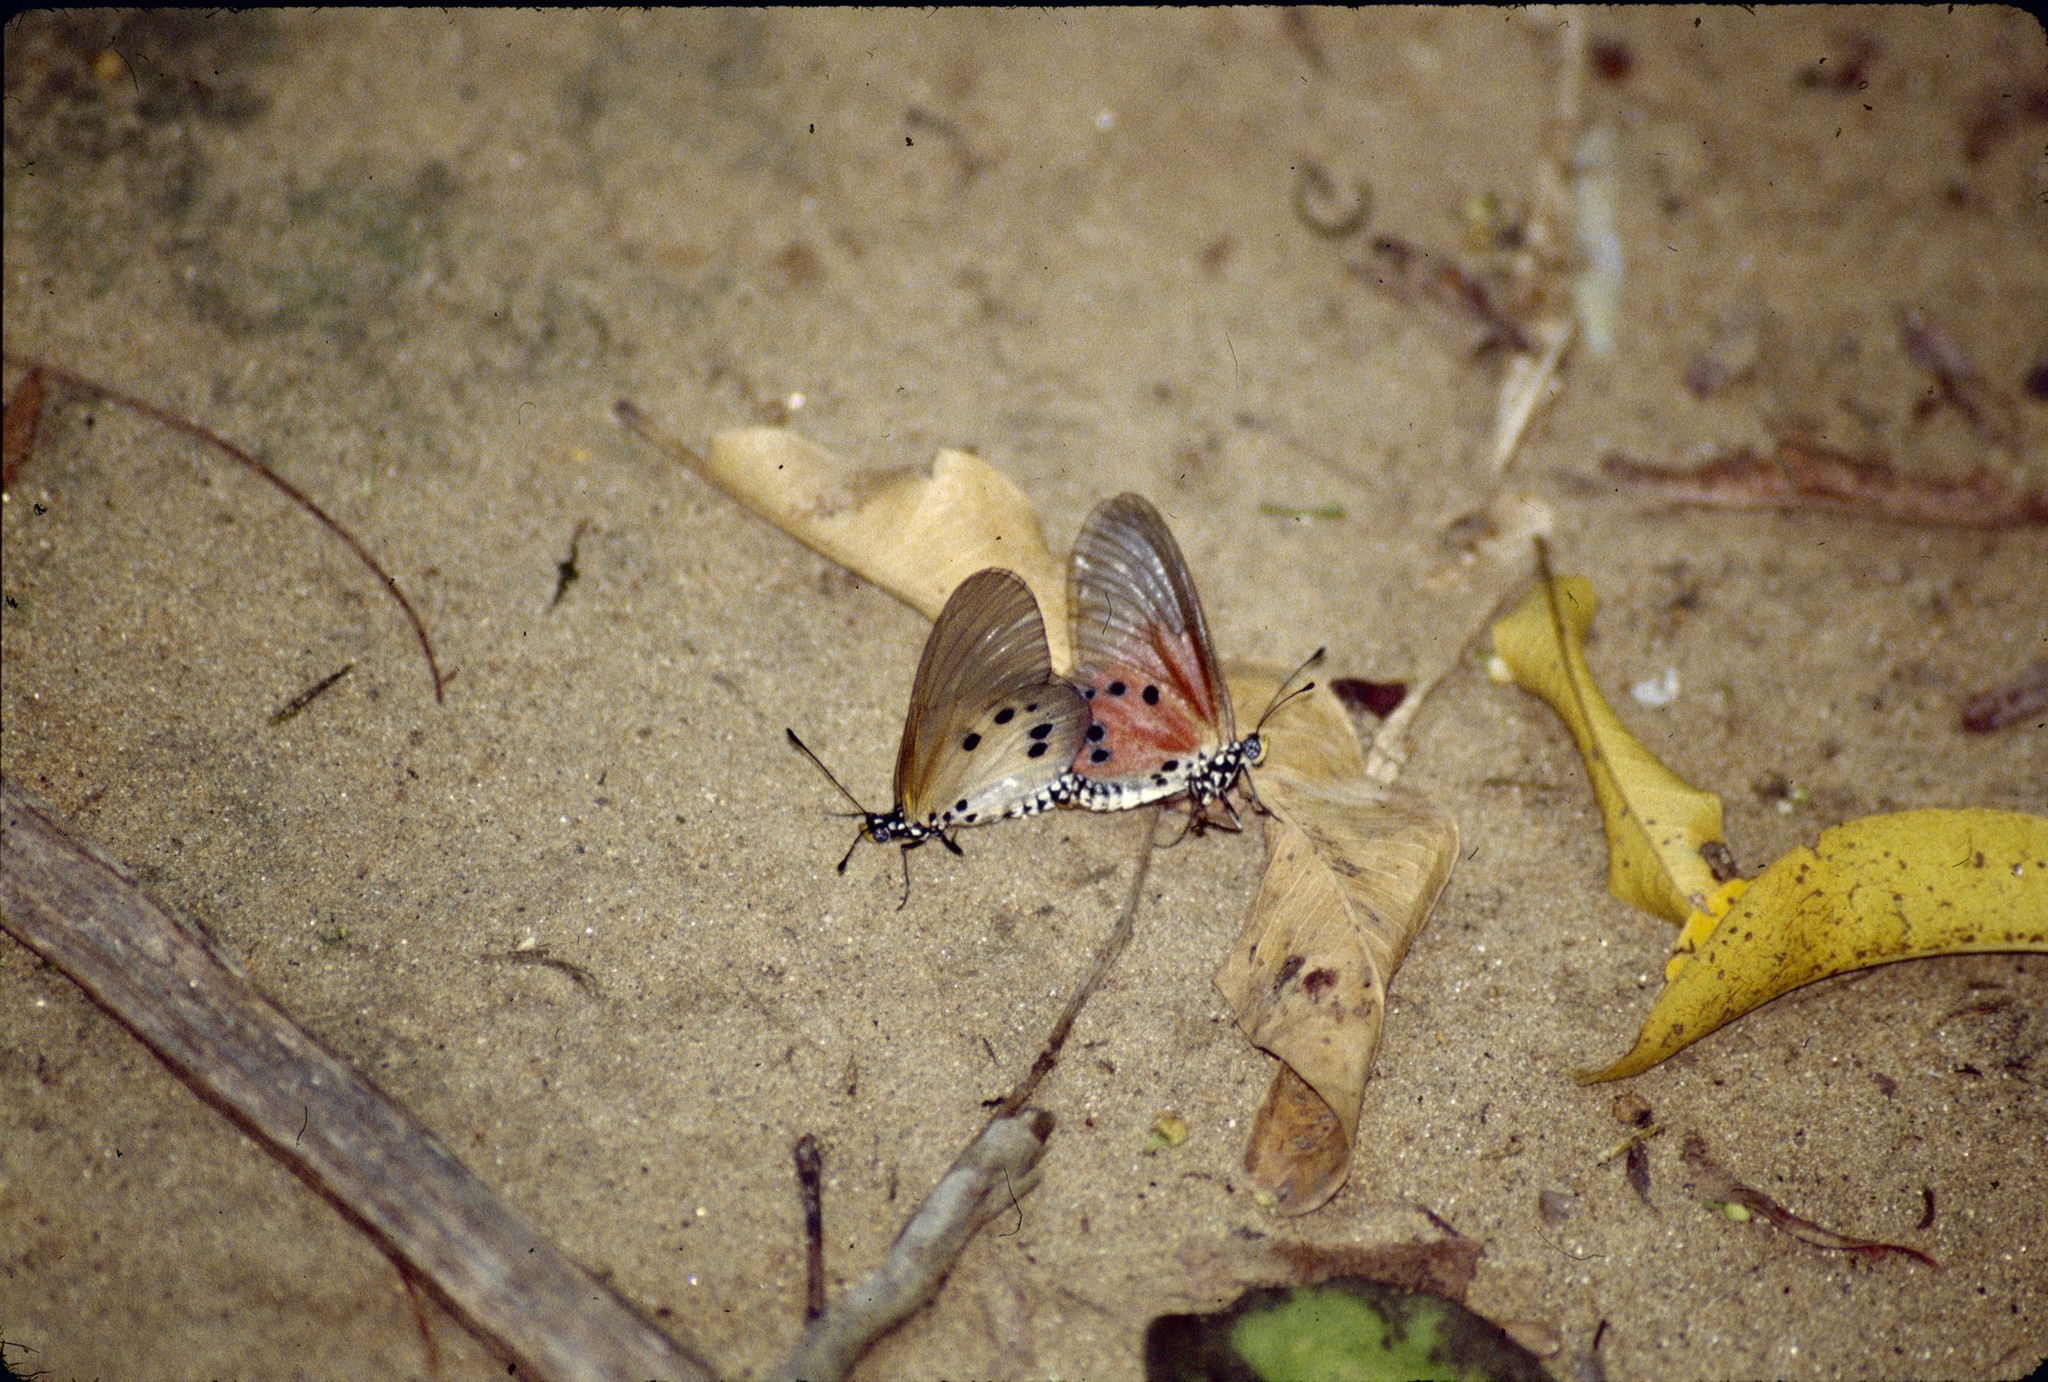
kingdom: Animalia
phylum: Arthropoda
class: Insecta
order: Lepidoptera
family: Nymphalidae
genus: Acraea
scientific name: Acraea damii
